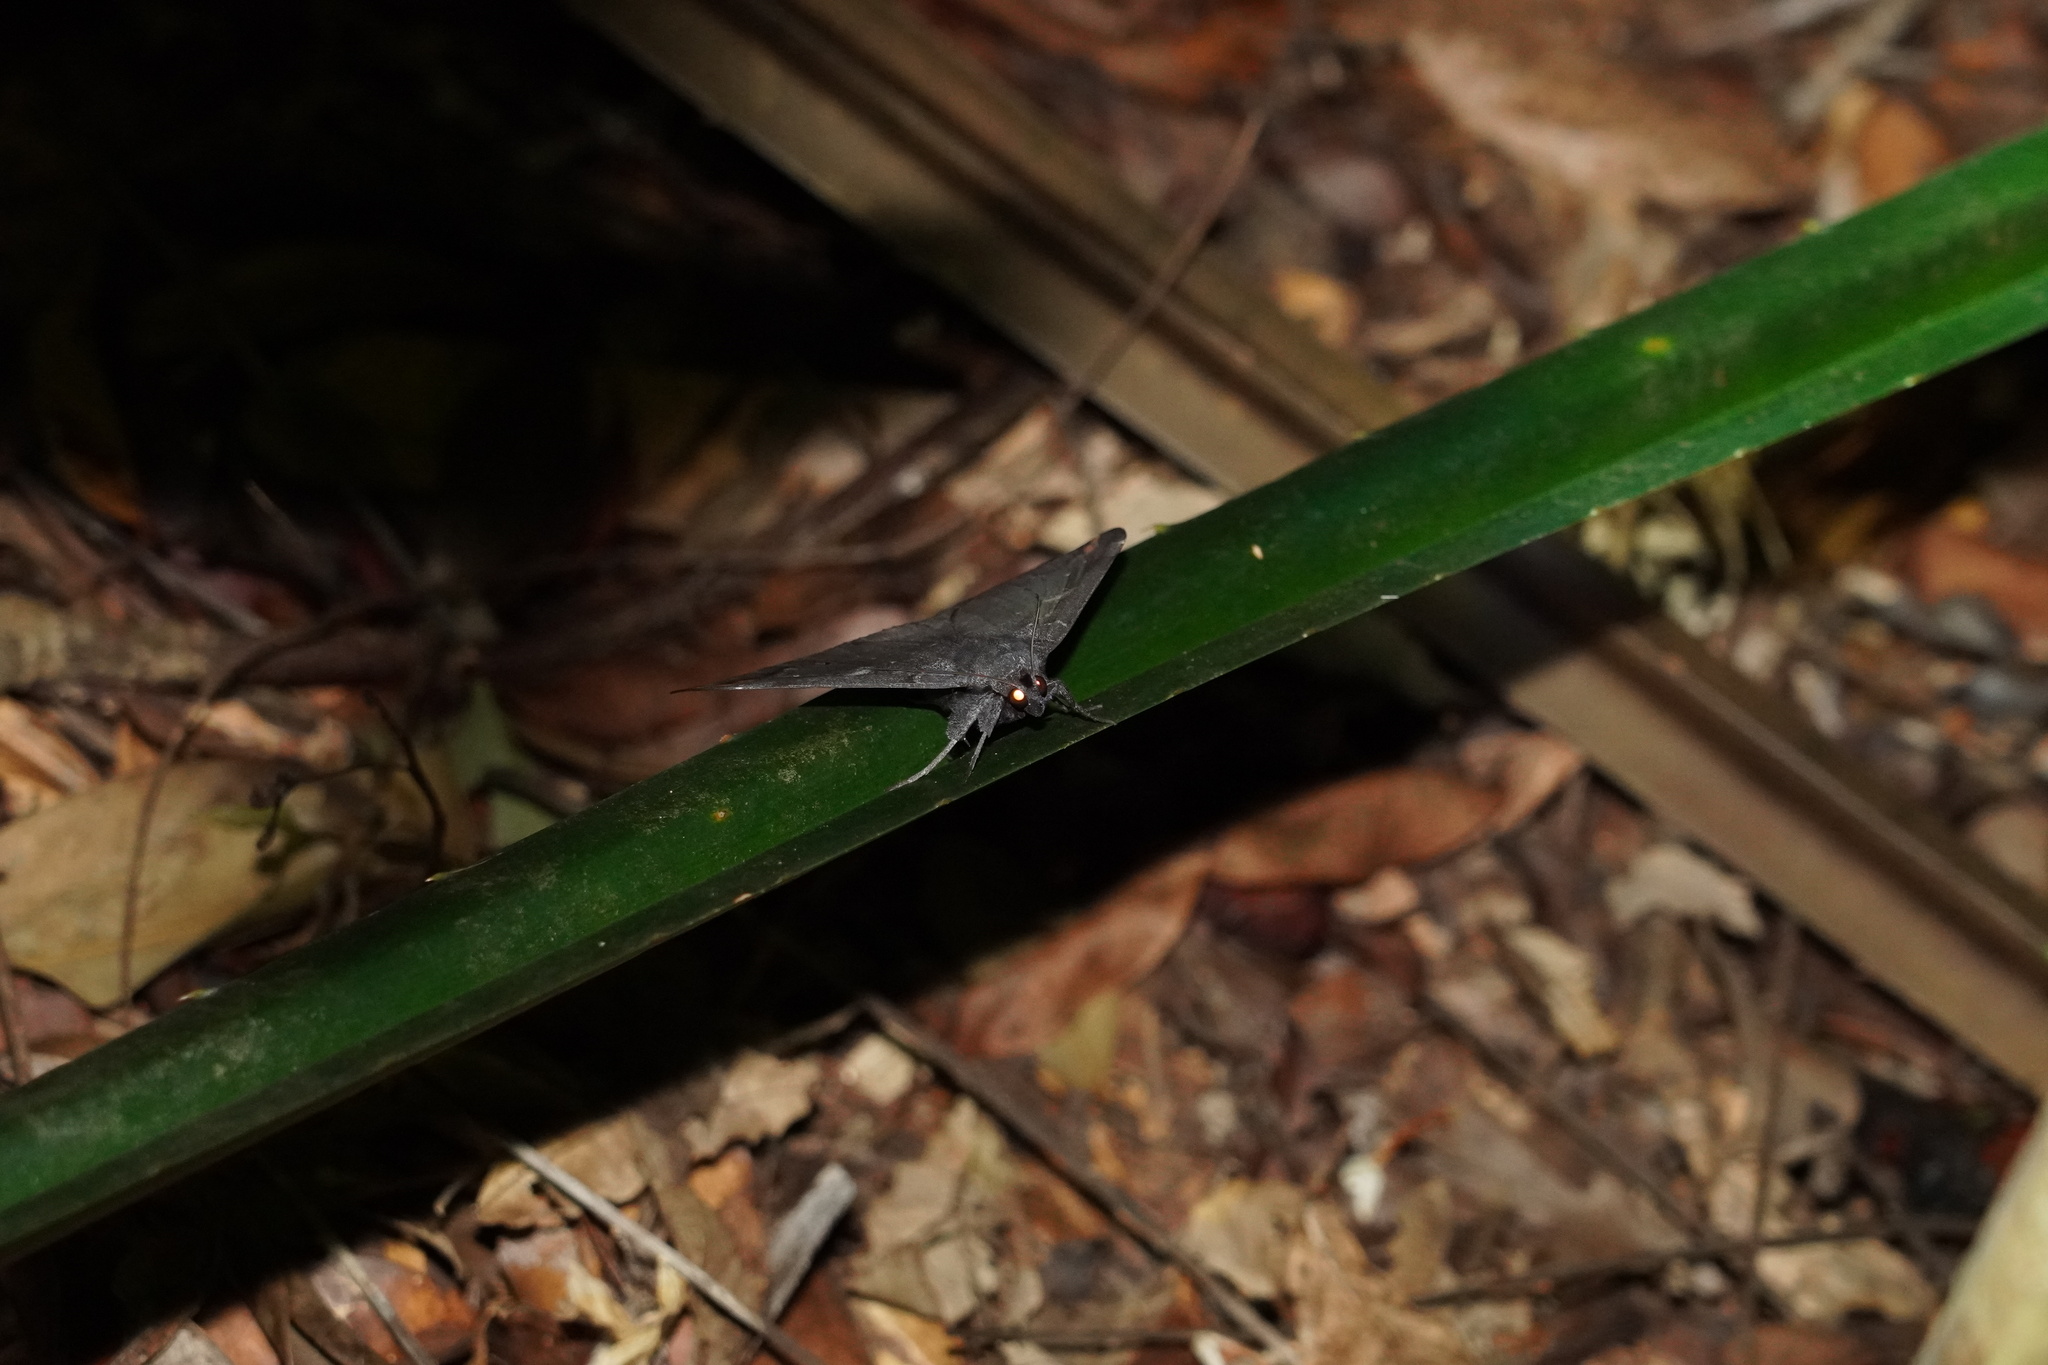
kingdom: Animalia
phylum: Arthropoda
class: Insecta
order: Lepidoptera
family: Erebidae
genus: Ischyja
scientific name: Ischyja ferrifracta
